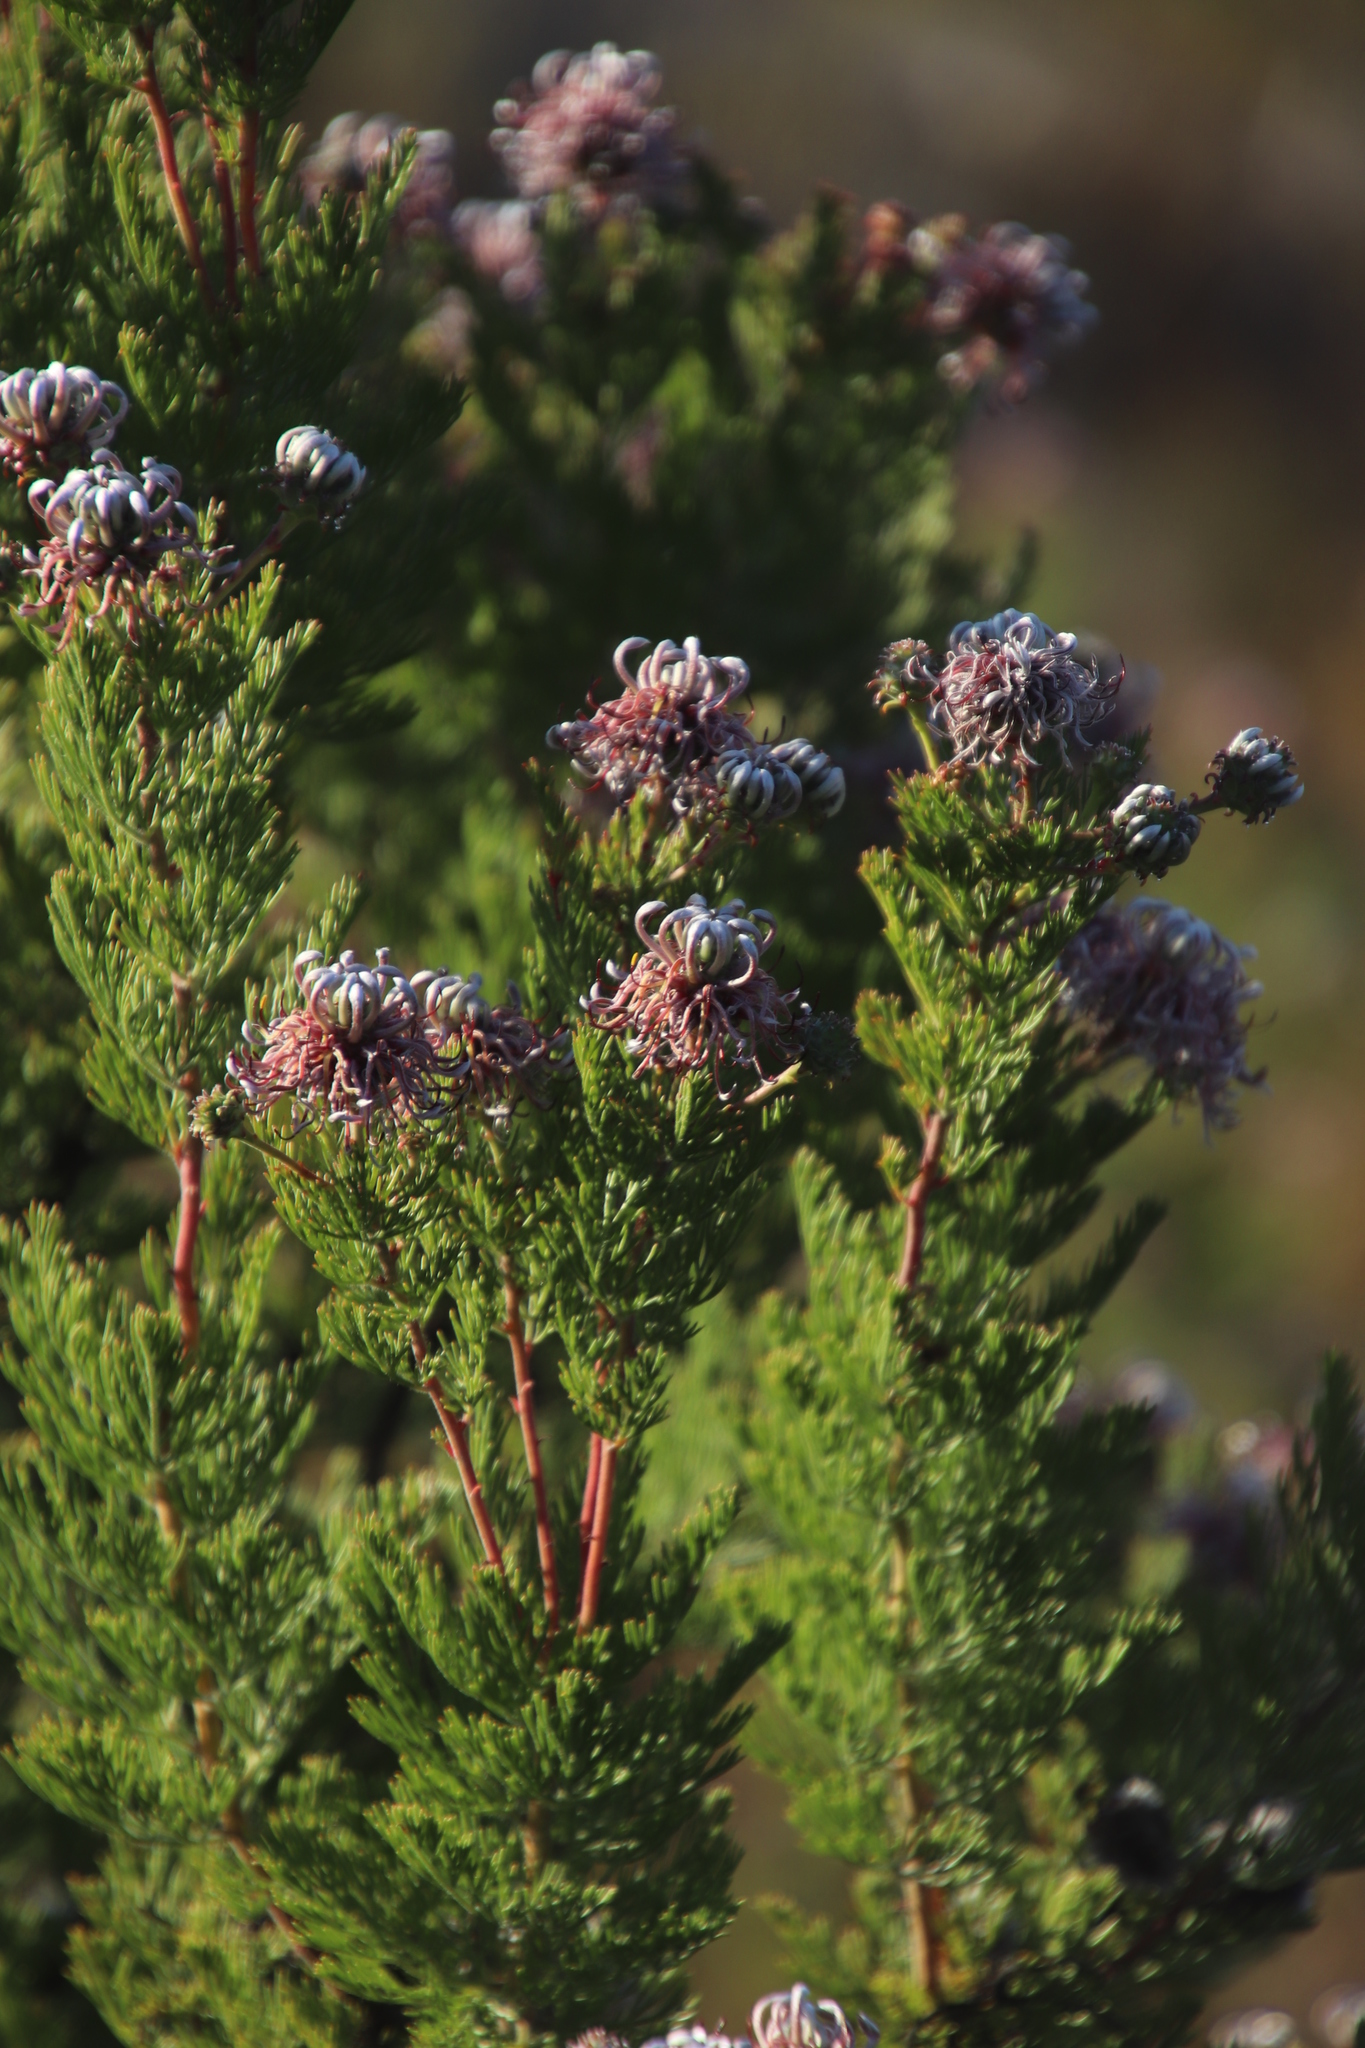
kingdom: Plantae
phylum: Tracheophyta
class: Magnoliopsida
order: Proteales
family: Proteaceae
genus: Serruria
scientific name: Serruria pedunculata
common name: Fan-leaf spiderhead
